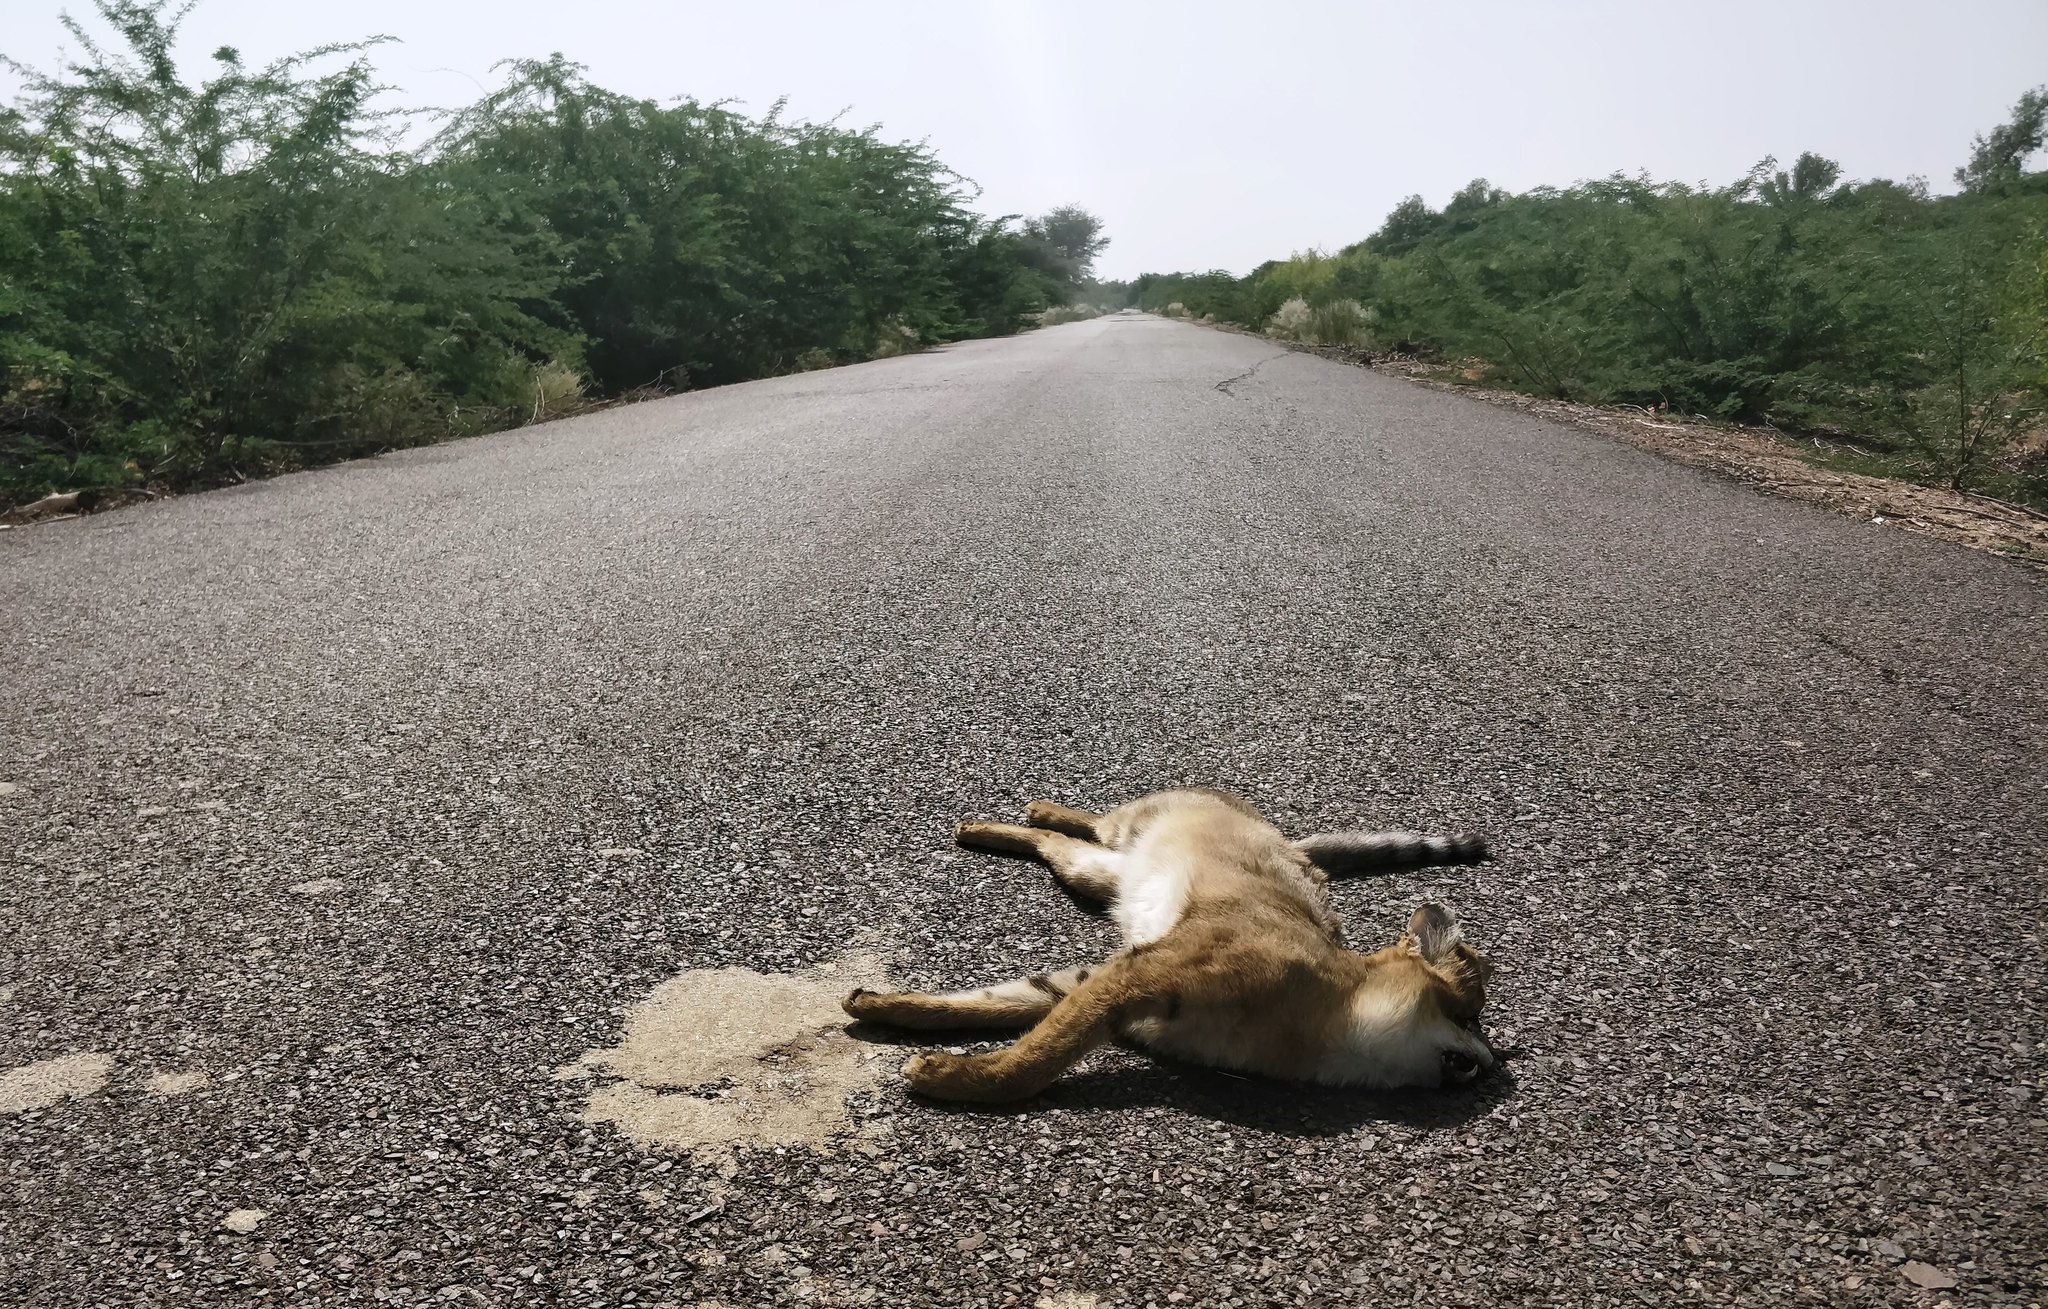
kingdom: Animalia
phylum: Chordata
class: Mammalia
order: Carnivora
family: Felidae
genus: Felis
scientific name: Felis chaus
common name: Jungle cat
